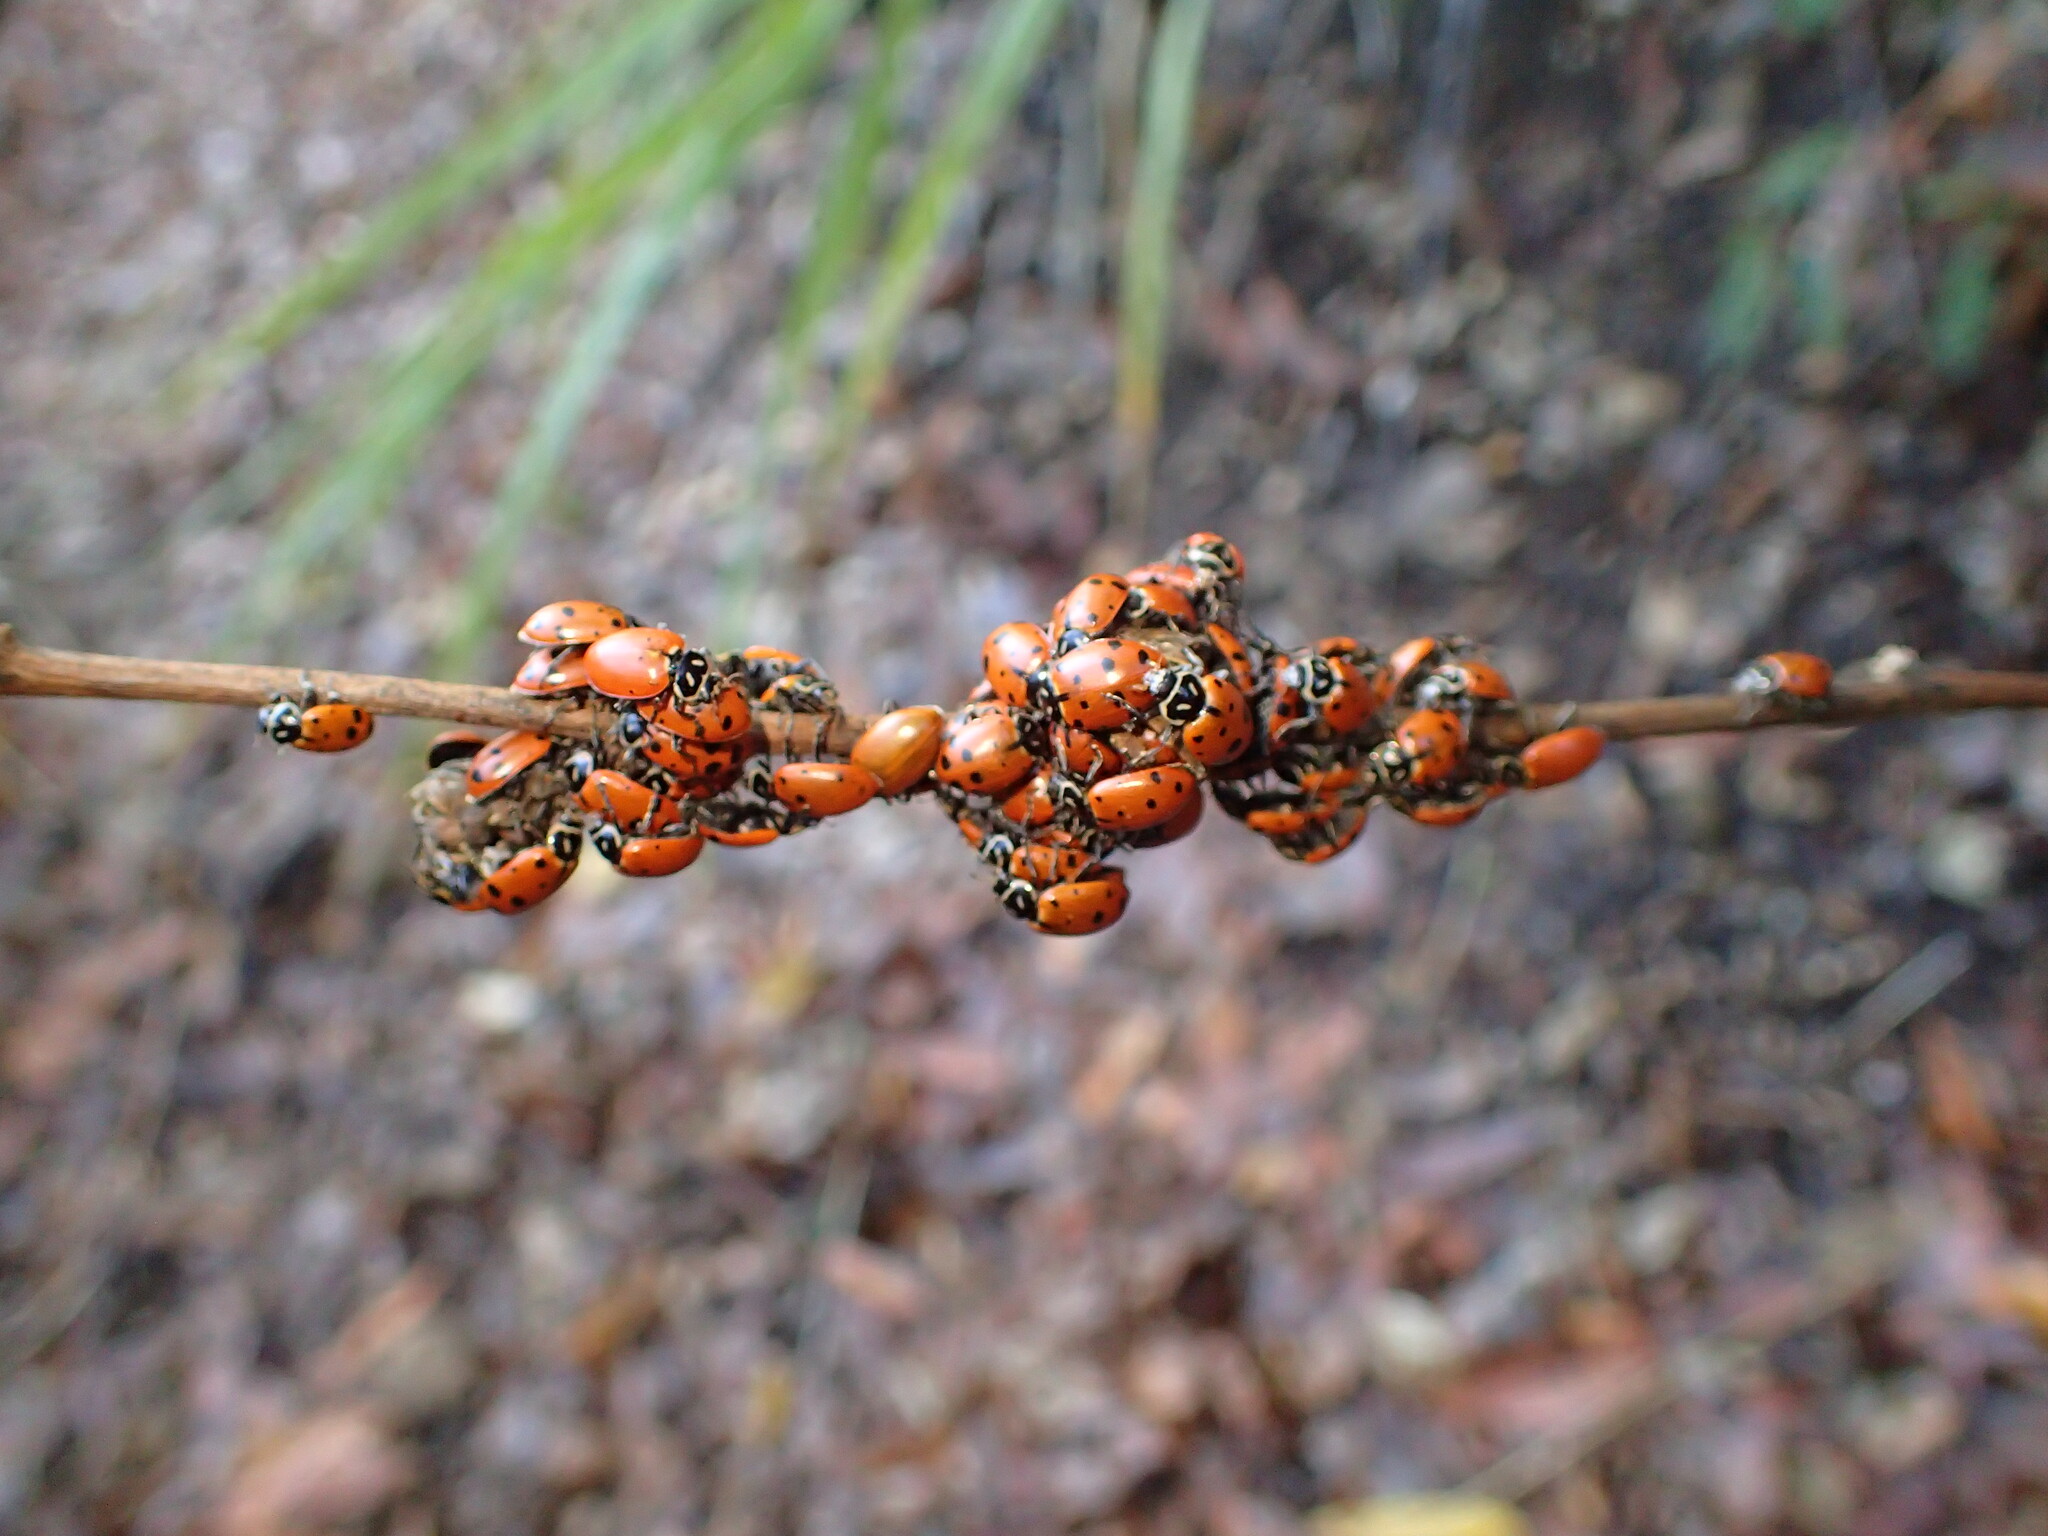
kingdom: Animalia
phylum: Arthropoda
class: Insecta
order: Coleoptera
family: Coccinellidae
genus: Hippodamia
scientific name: Hippodamia convergens
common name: Convergent lady beetle
